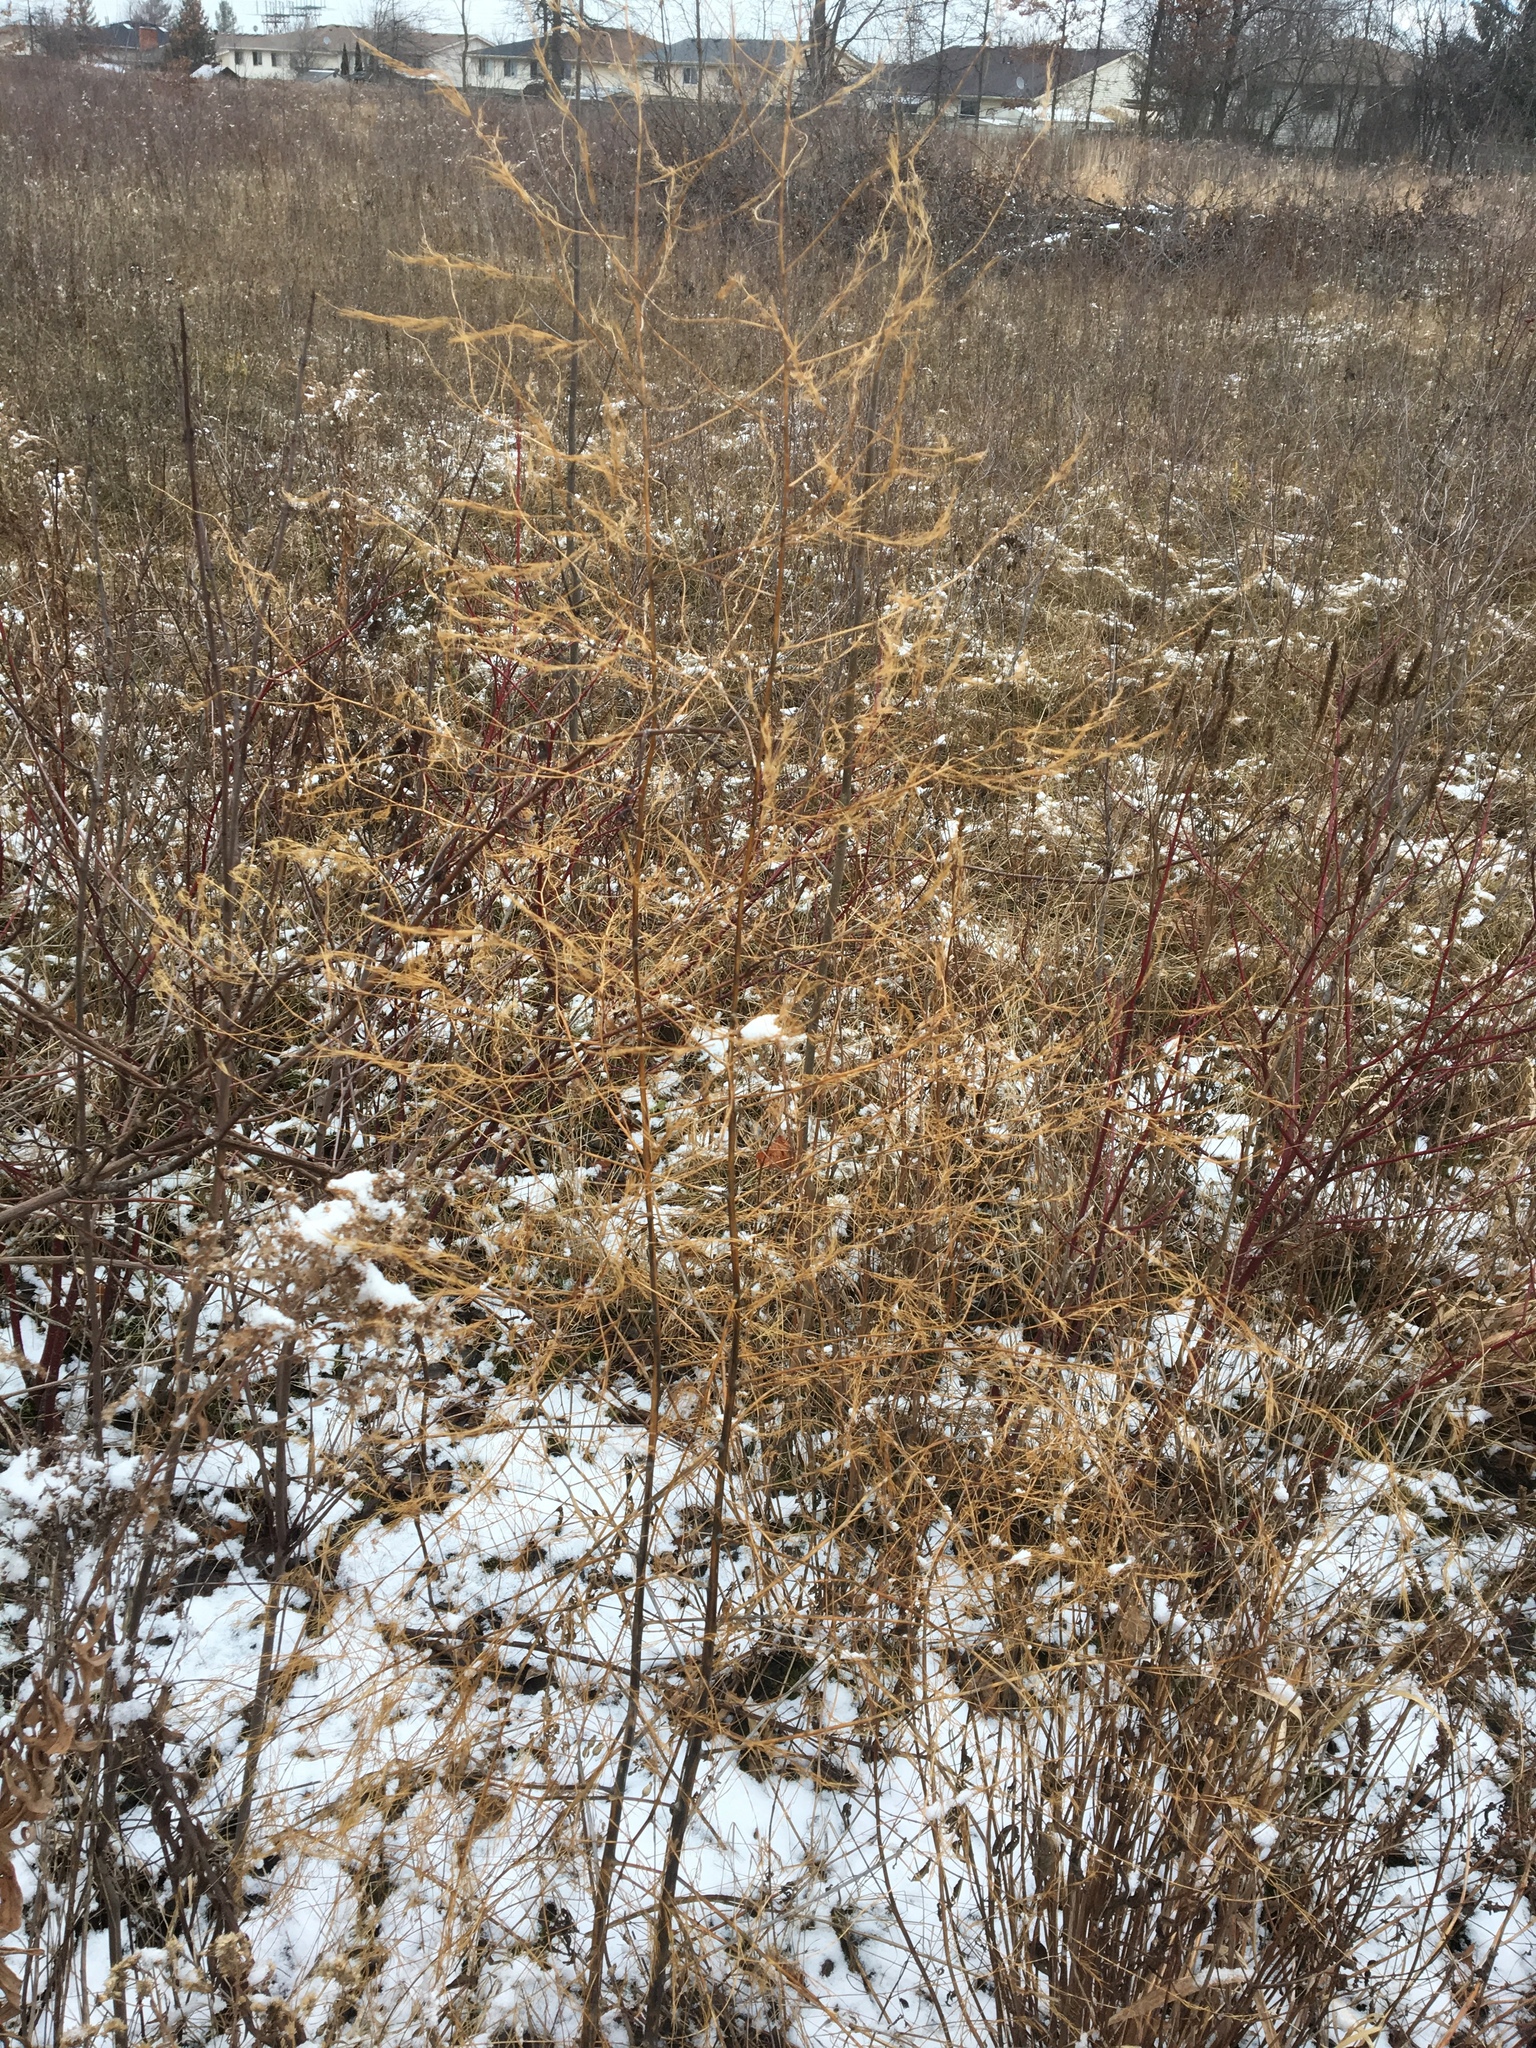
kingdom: Plantae
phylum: Tracheophyta
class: Liliopsida
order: Asparagales
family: Asparagaceae
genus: Asparagus
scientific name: Asparagus officinalis
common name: Garden asparagus
